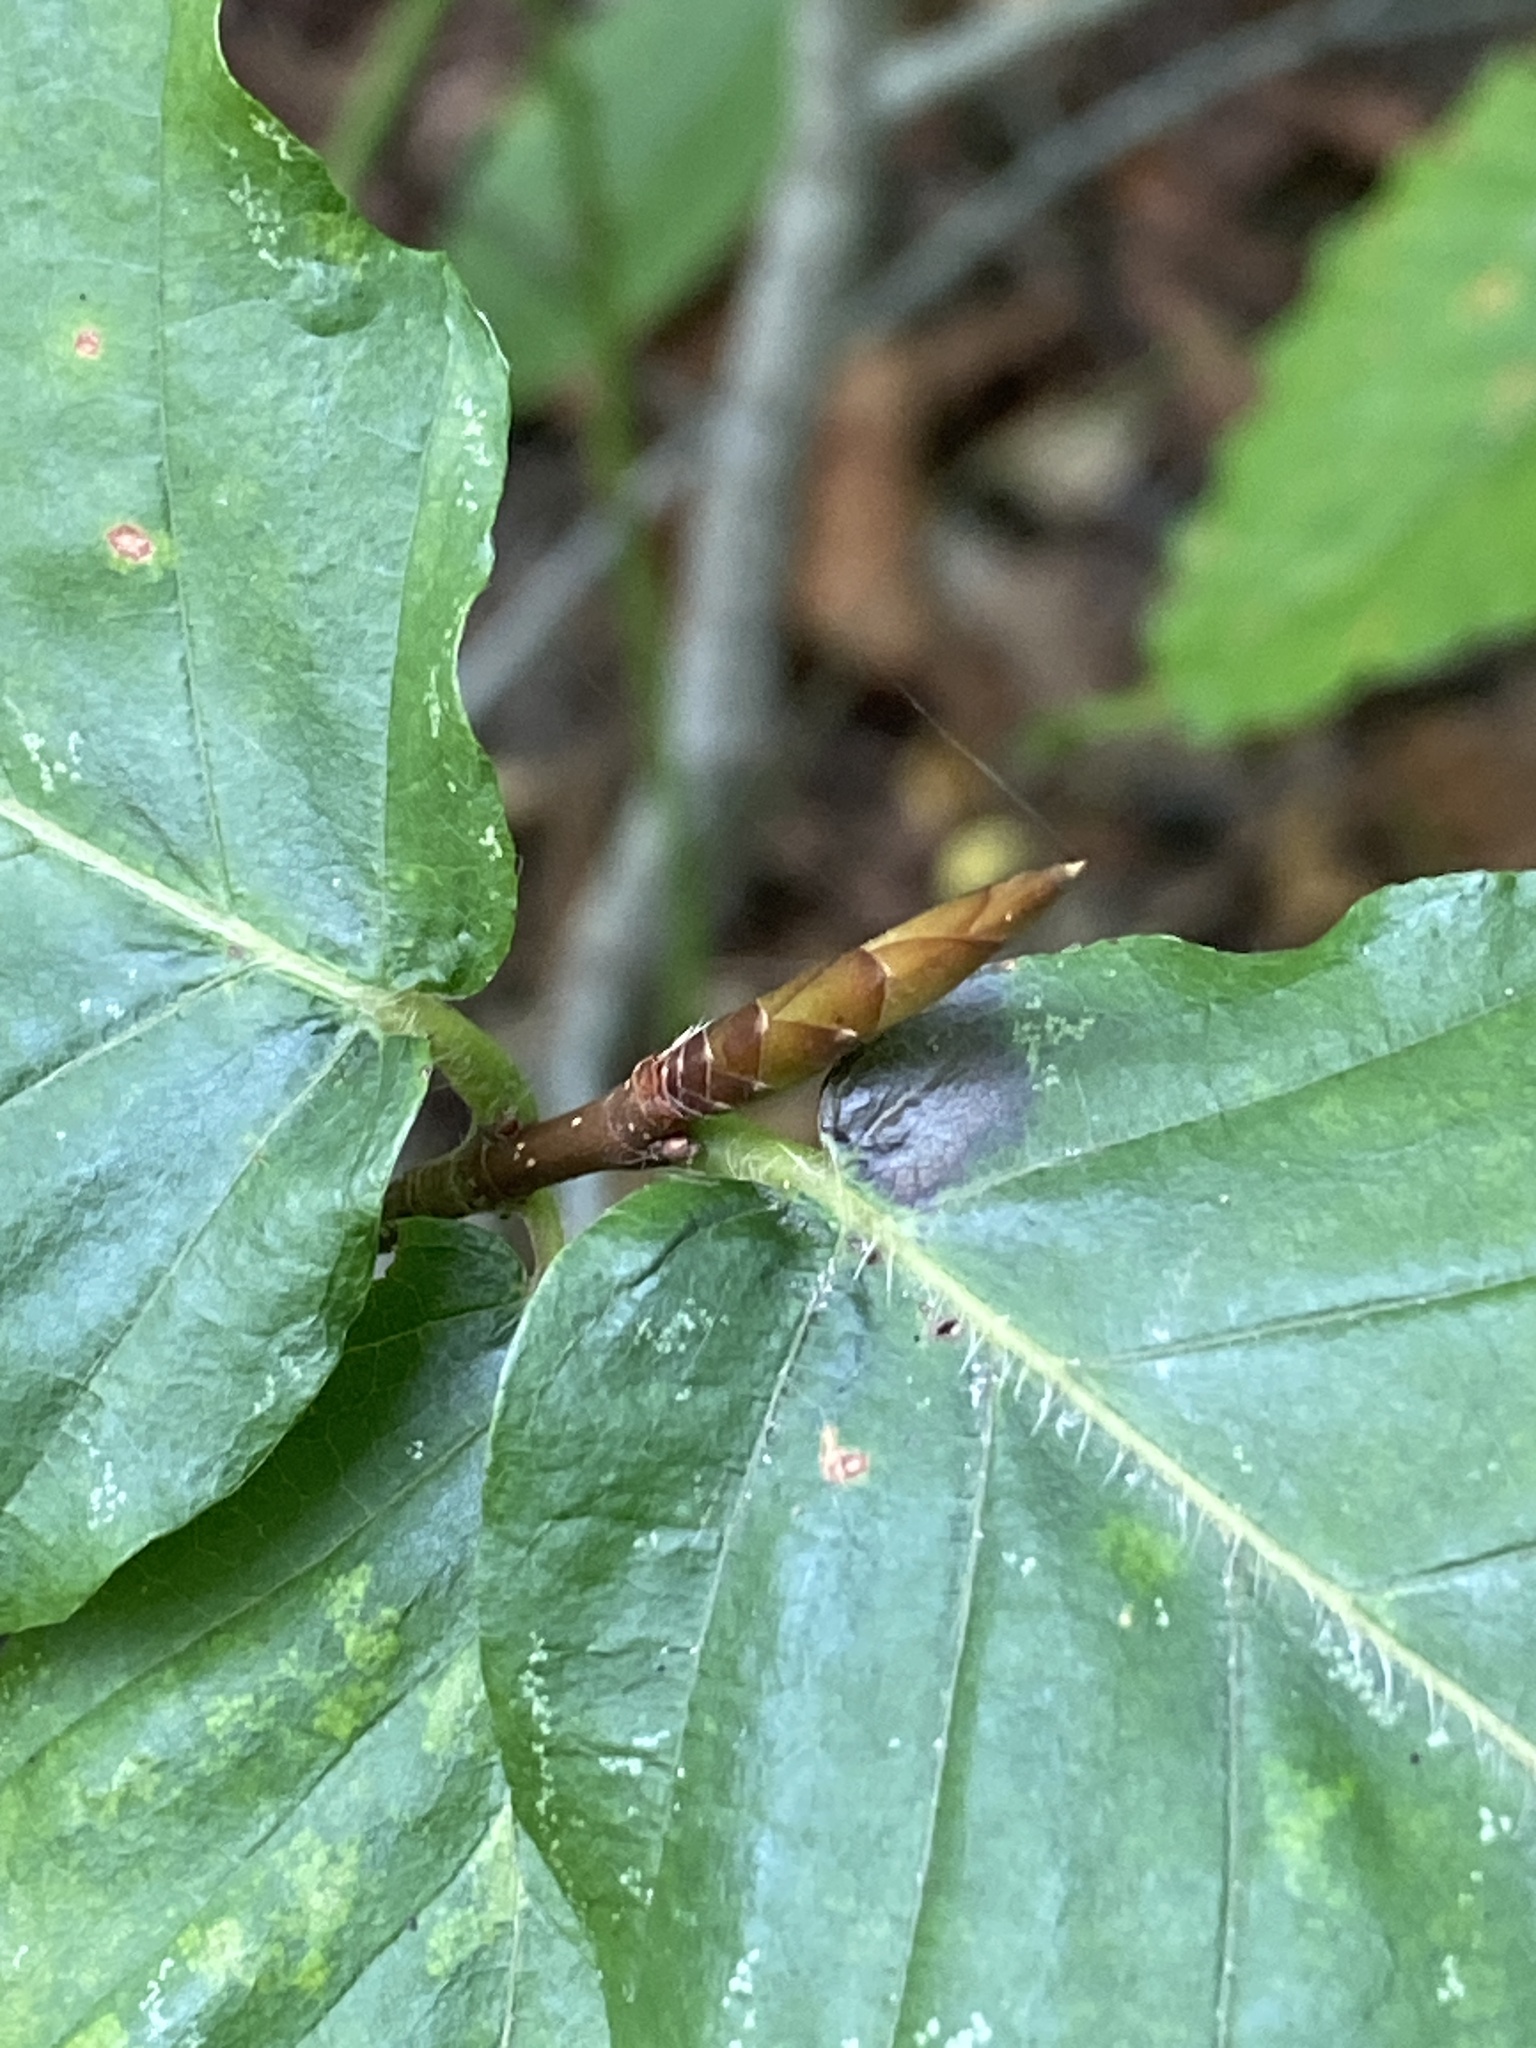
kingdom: Plantae
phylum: Tracheophyta
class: Magnoliopsida
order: Fagales
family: Fagaceae
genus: Fagus
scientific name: Fagus grandifolia
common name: American beech
